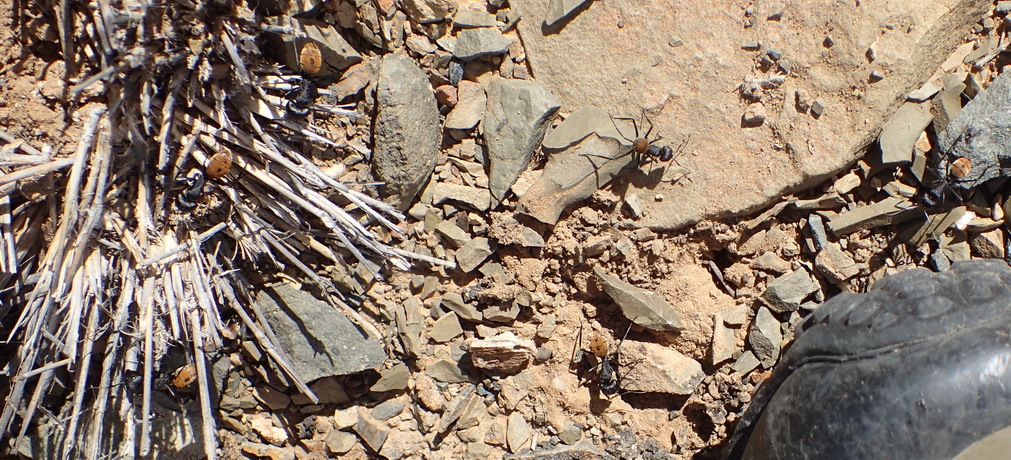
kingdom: Animalia
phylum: Arthropoda
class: Insecta
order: Hymenoptera
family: Formicidae
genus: Camponotus
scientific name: Camponotus fulvopilosus
